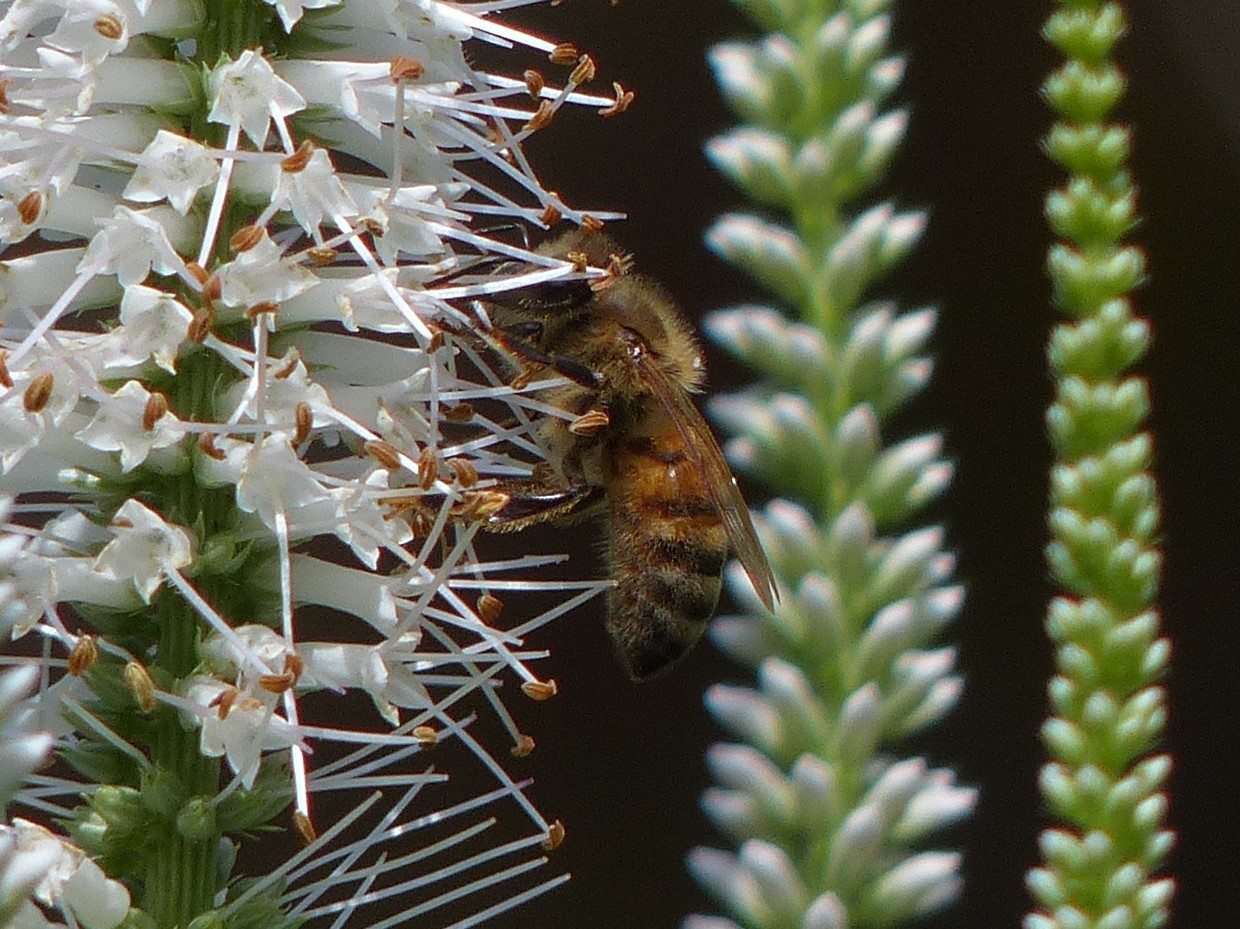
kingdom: Animalia
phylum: Arthropoda
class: Insecta
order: Hymenoptera
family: Apidae
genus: Apis
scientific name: Apis mellifera
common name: Honey bee
